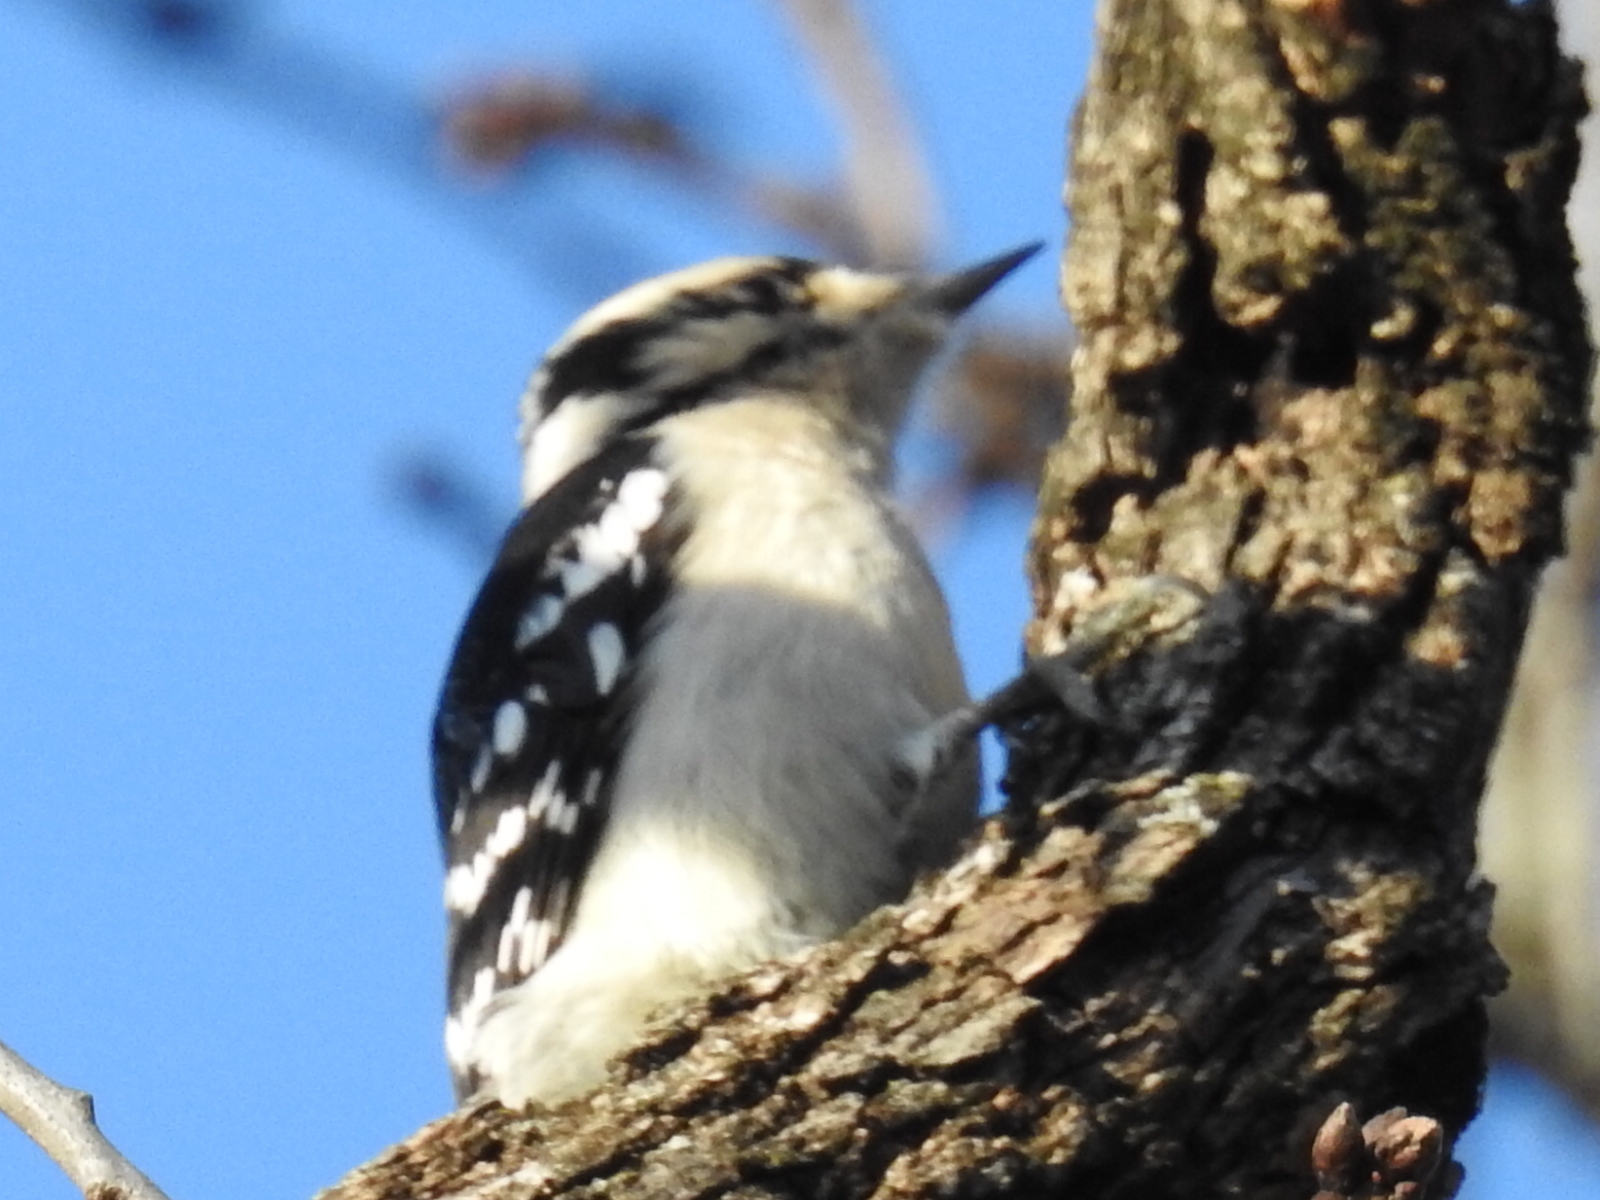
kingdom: Animalia
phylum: Chordata
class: Aves
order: Piciformes
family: Picidae
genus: Dryobates
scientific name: Dryobates pubescens
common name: Downy woodpecker
